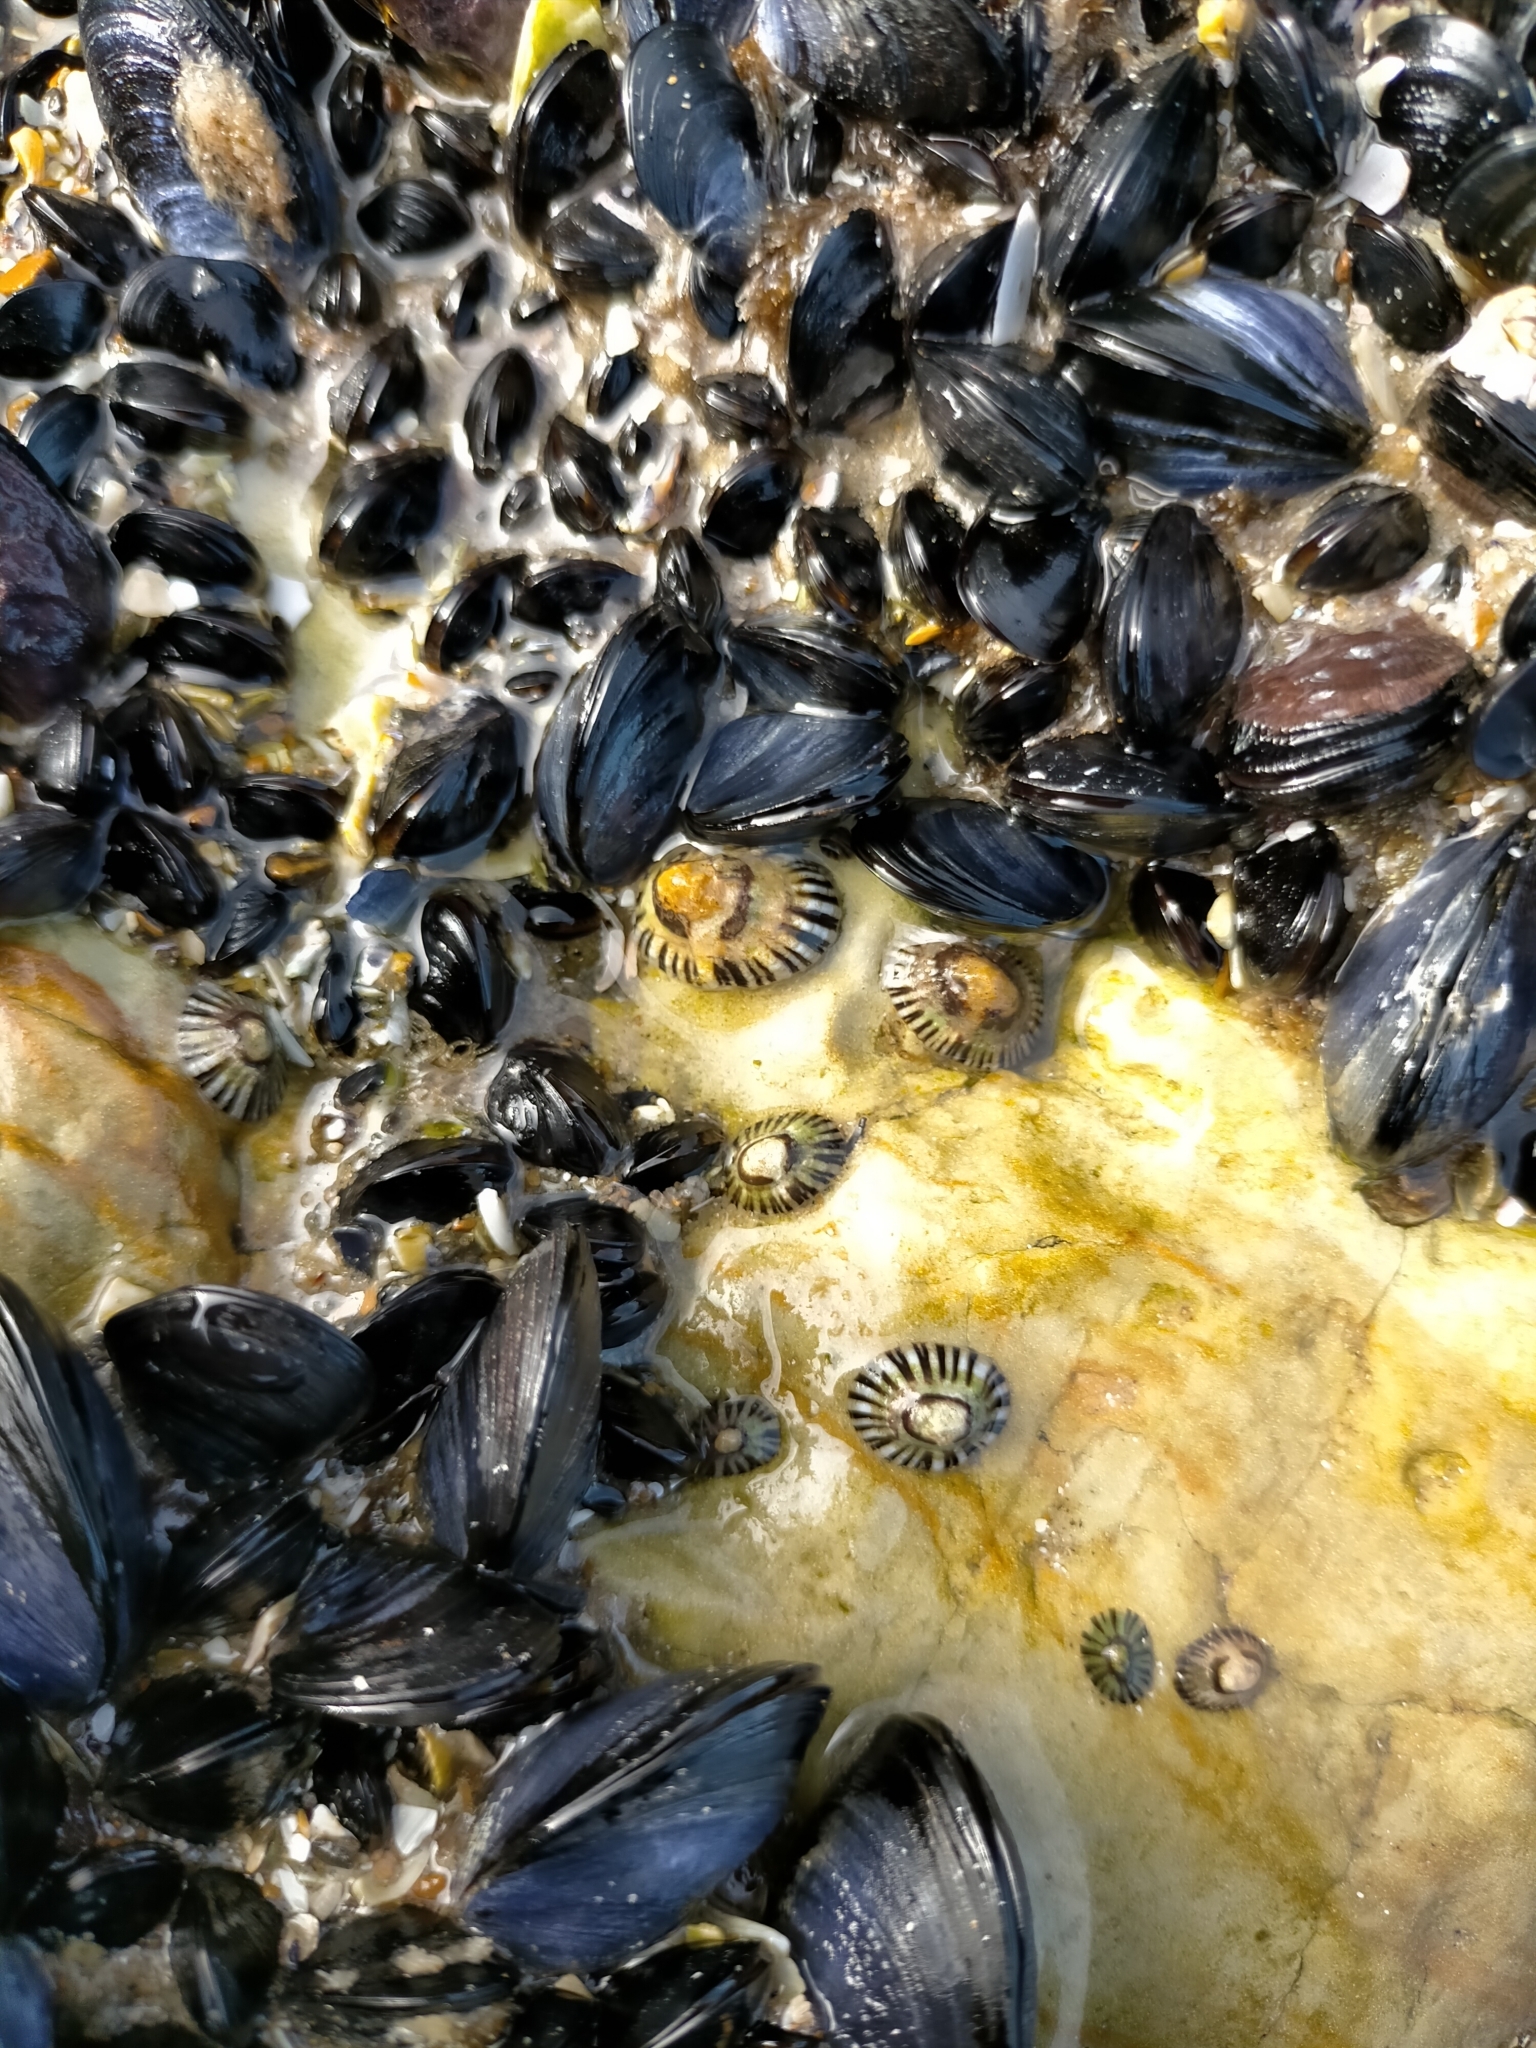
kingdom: Animalia
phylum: Mollusca
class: Gastropoda
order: Siphonariida
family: Siphonariidae
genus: Siphonaria
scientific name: Siphonaria diemenensis
